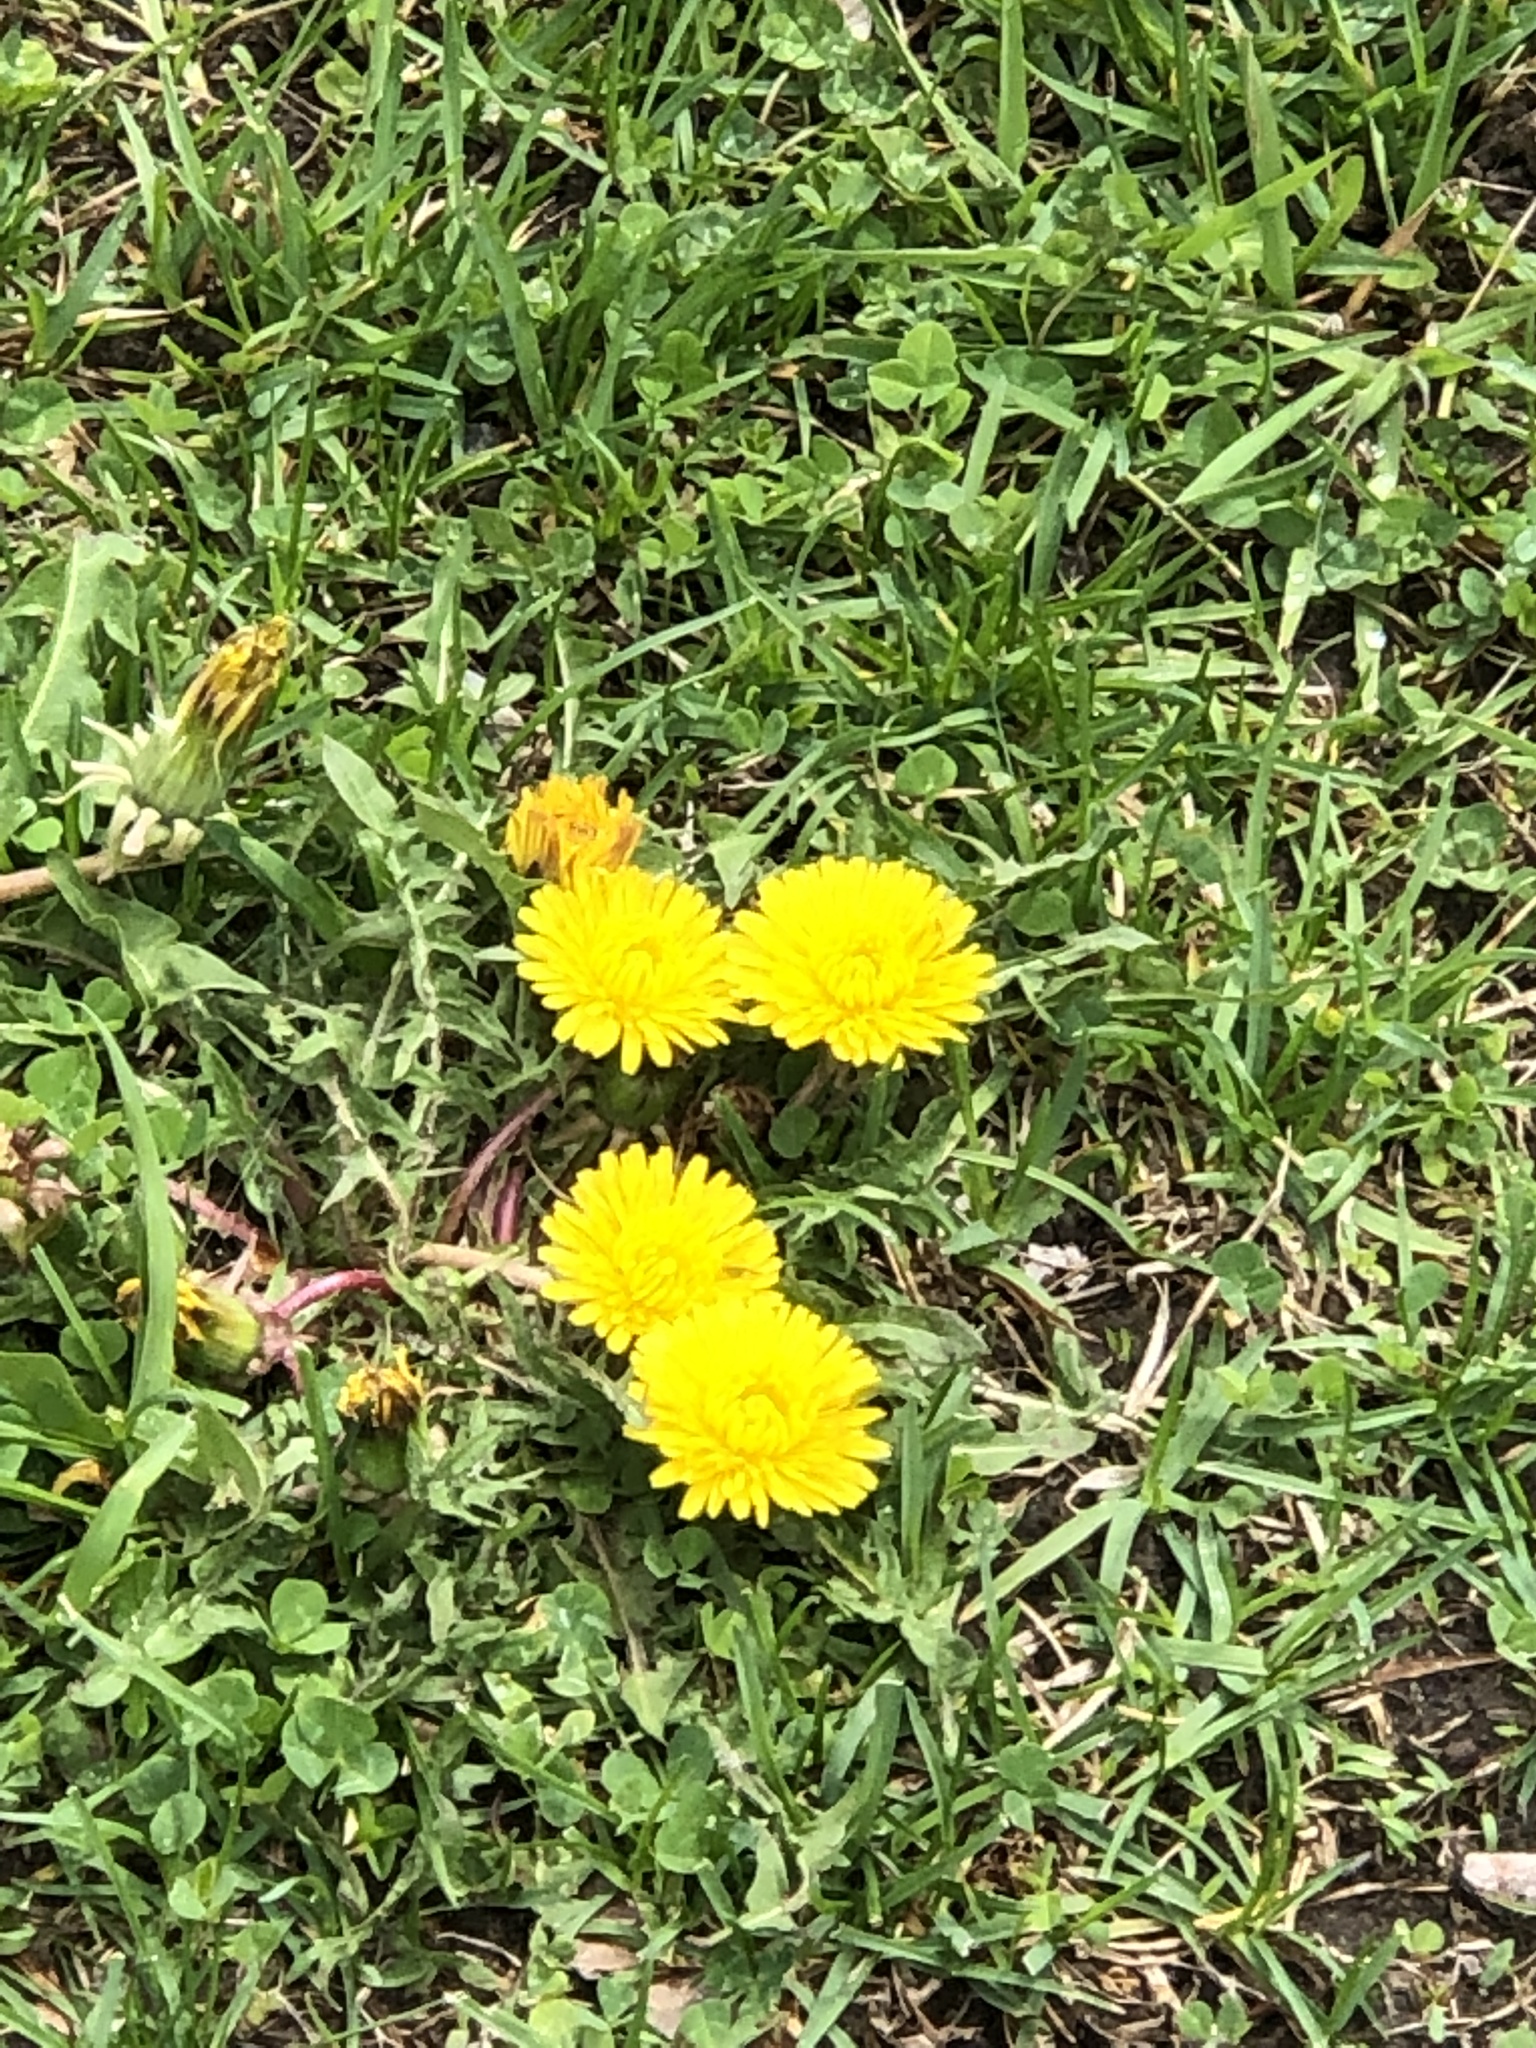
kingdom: Plantae
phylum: Tracheophyta
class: Magnoliopsida
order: Asterales
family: Asteraceae
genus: Taraxacum
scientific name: Taraxacum officinale
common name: Common dandelion
